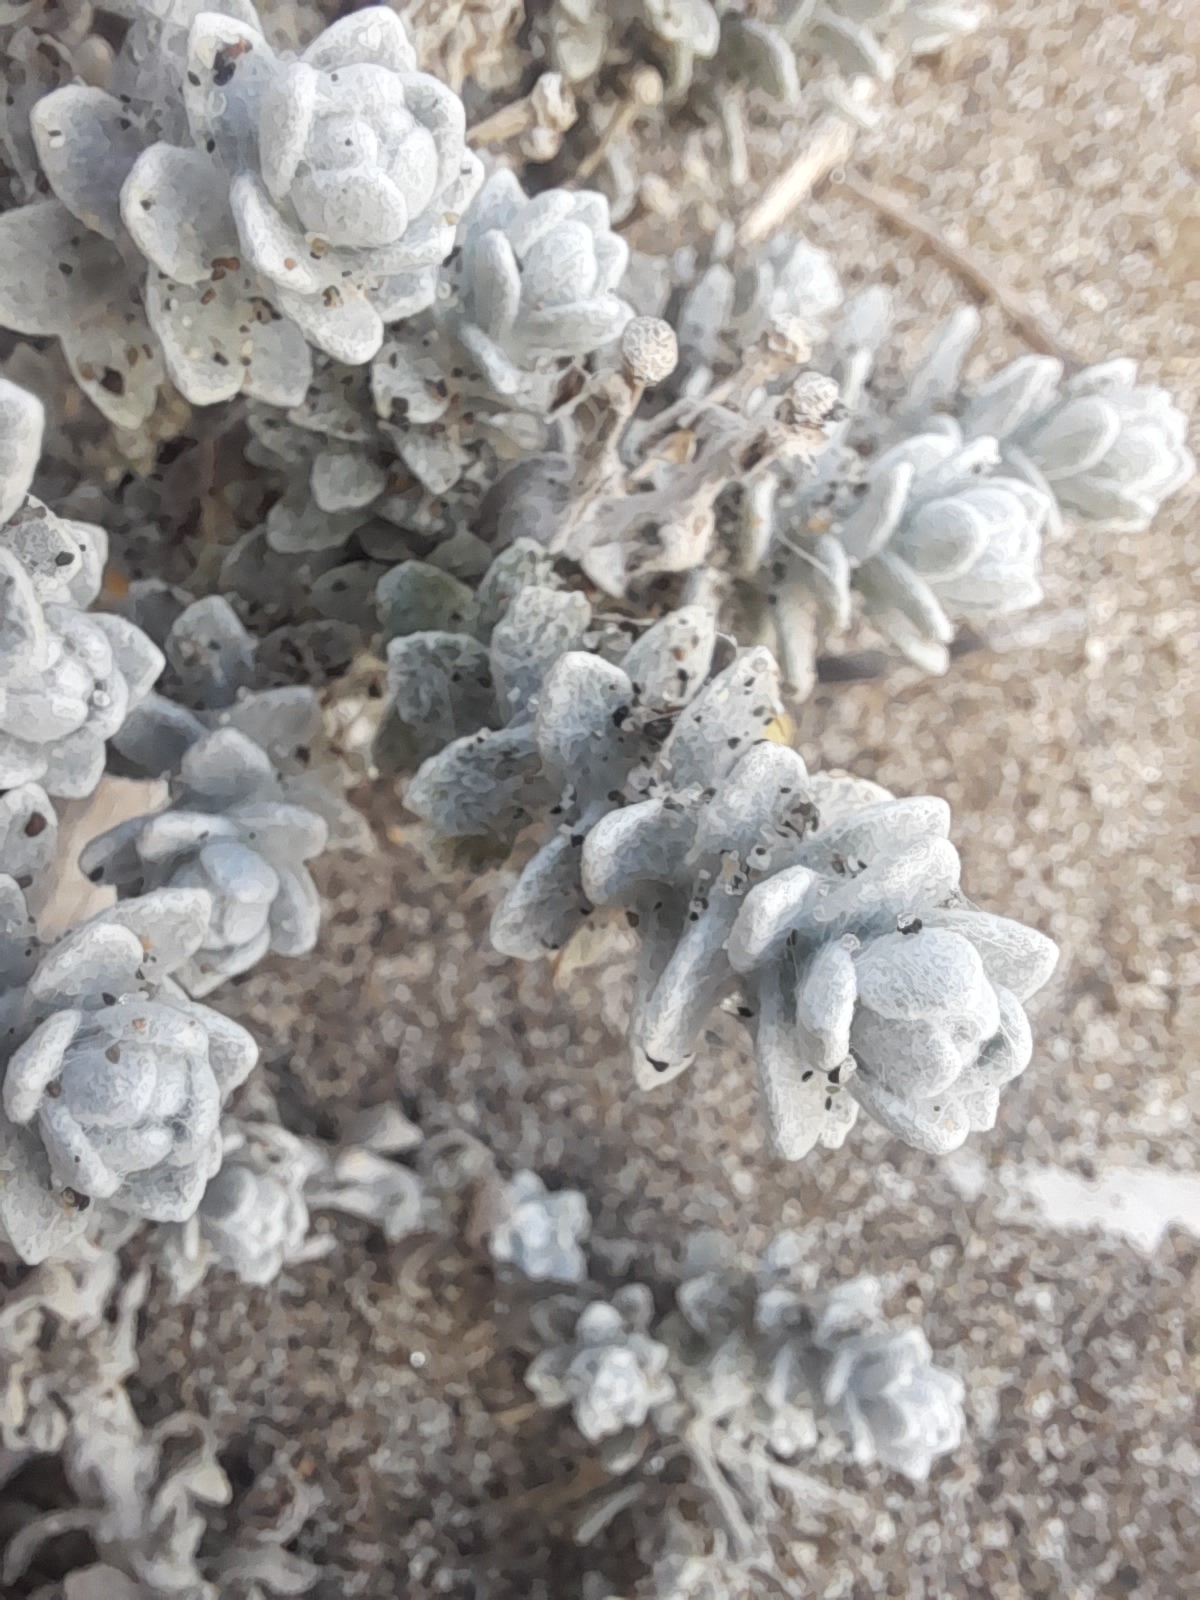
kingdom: Plantae
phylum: Tracheophyta
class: Magnoliopsida
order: Asterales
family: Asteraceae
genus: Achillea
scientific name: Achillea maritima
